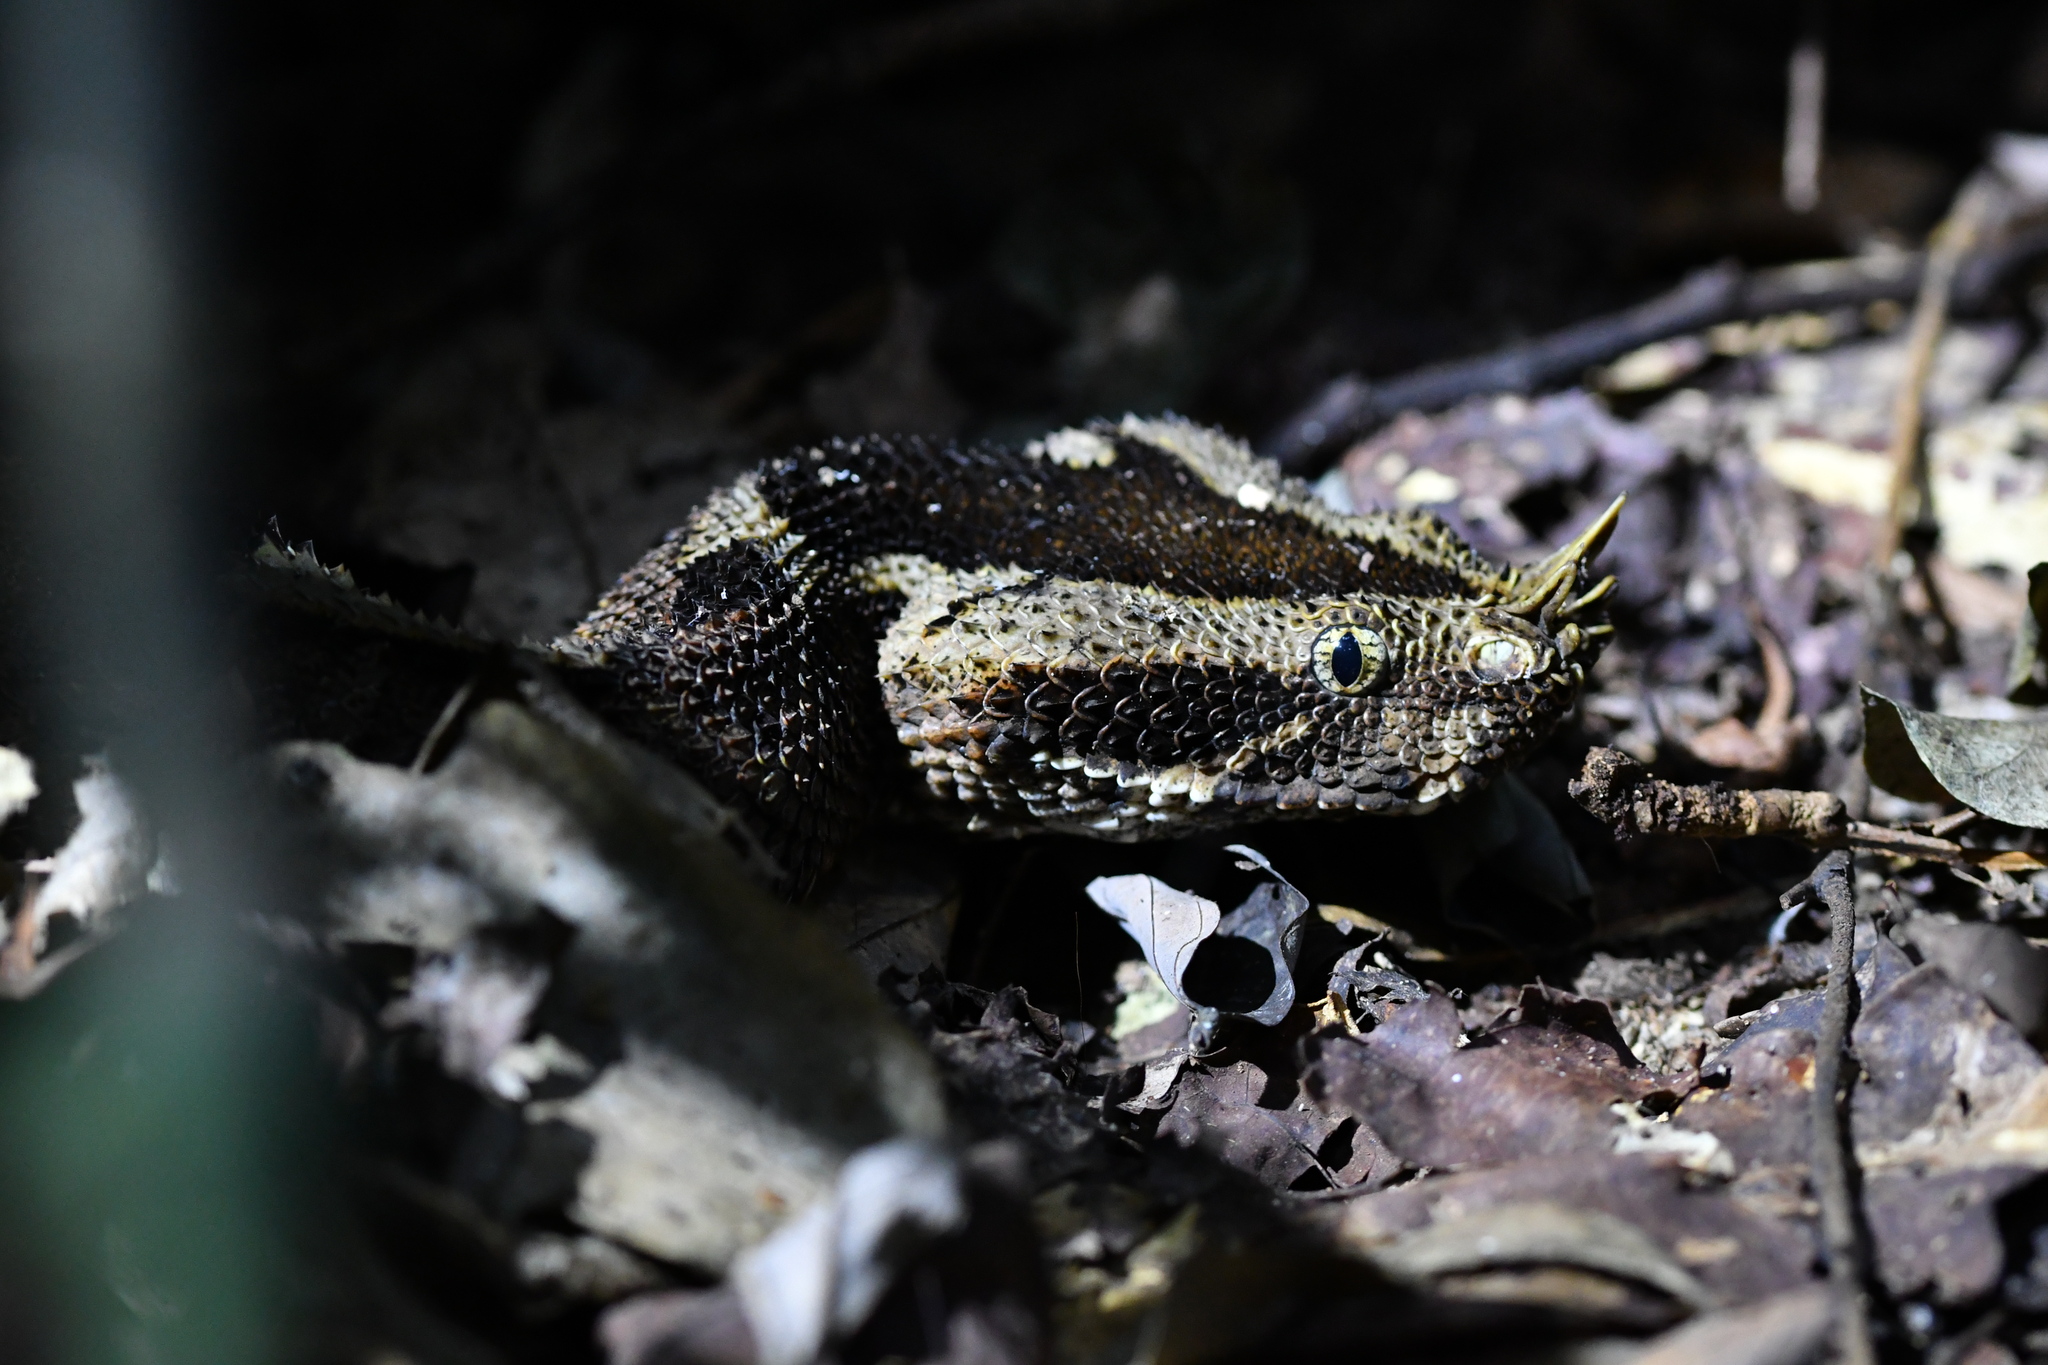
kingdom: Animalia
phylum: Chordata
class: Squamata
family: Viperidae
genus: Bitis
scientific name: Bitis nasicornis
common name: Rhinoceros viper
